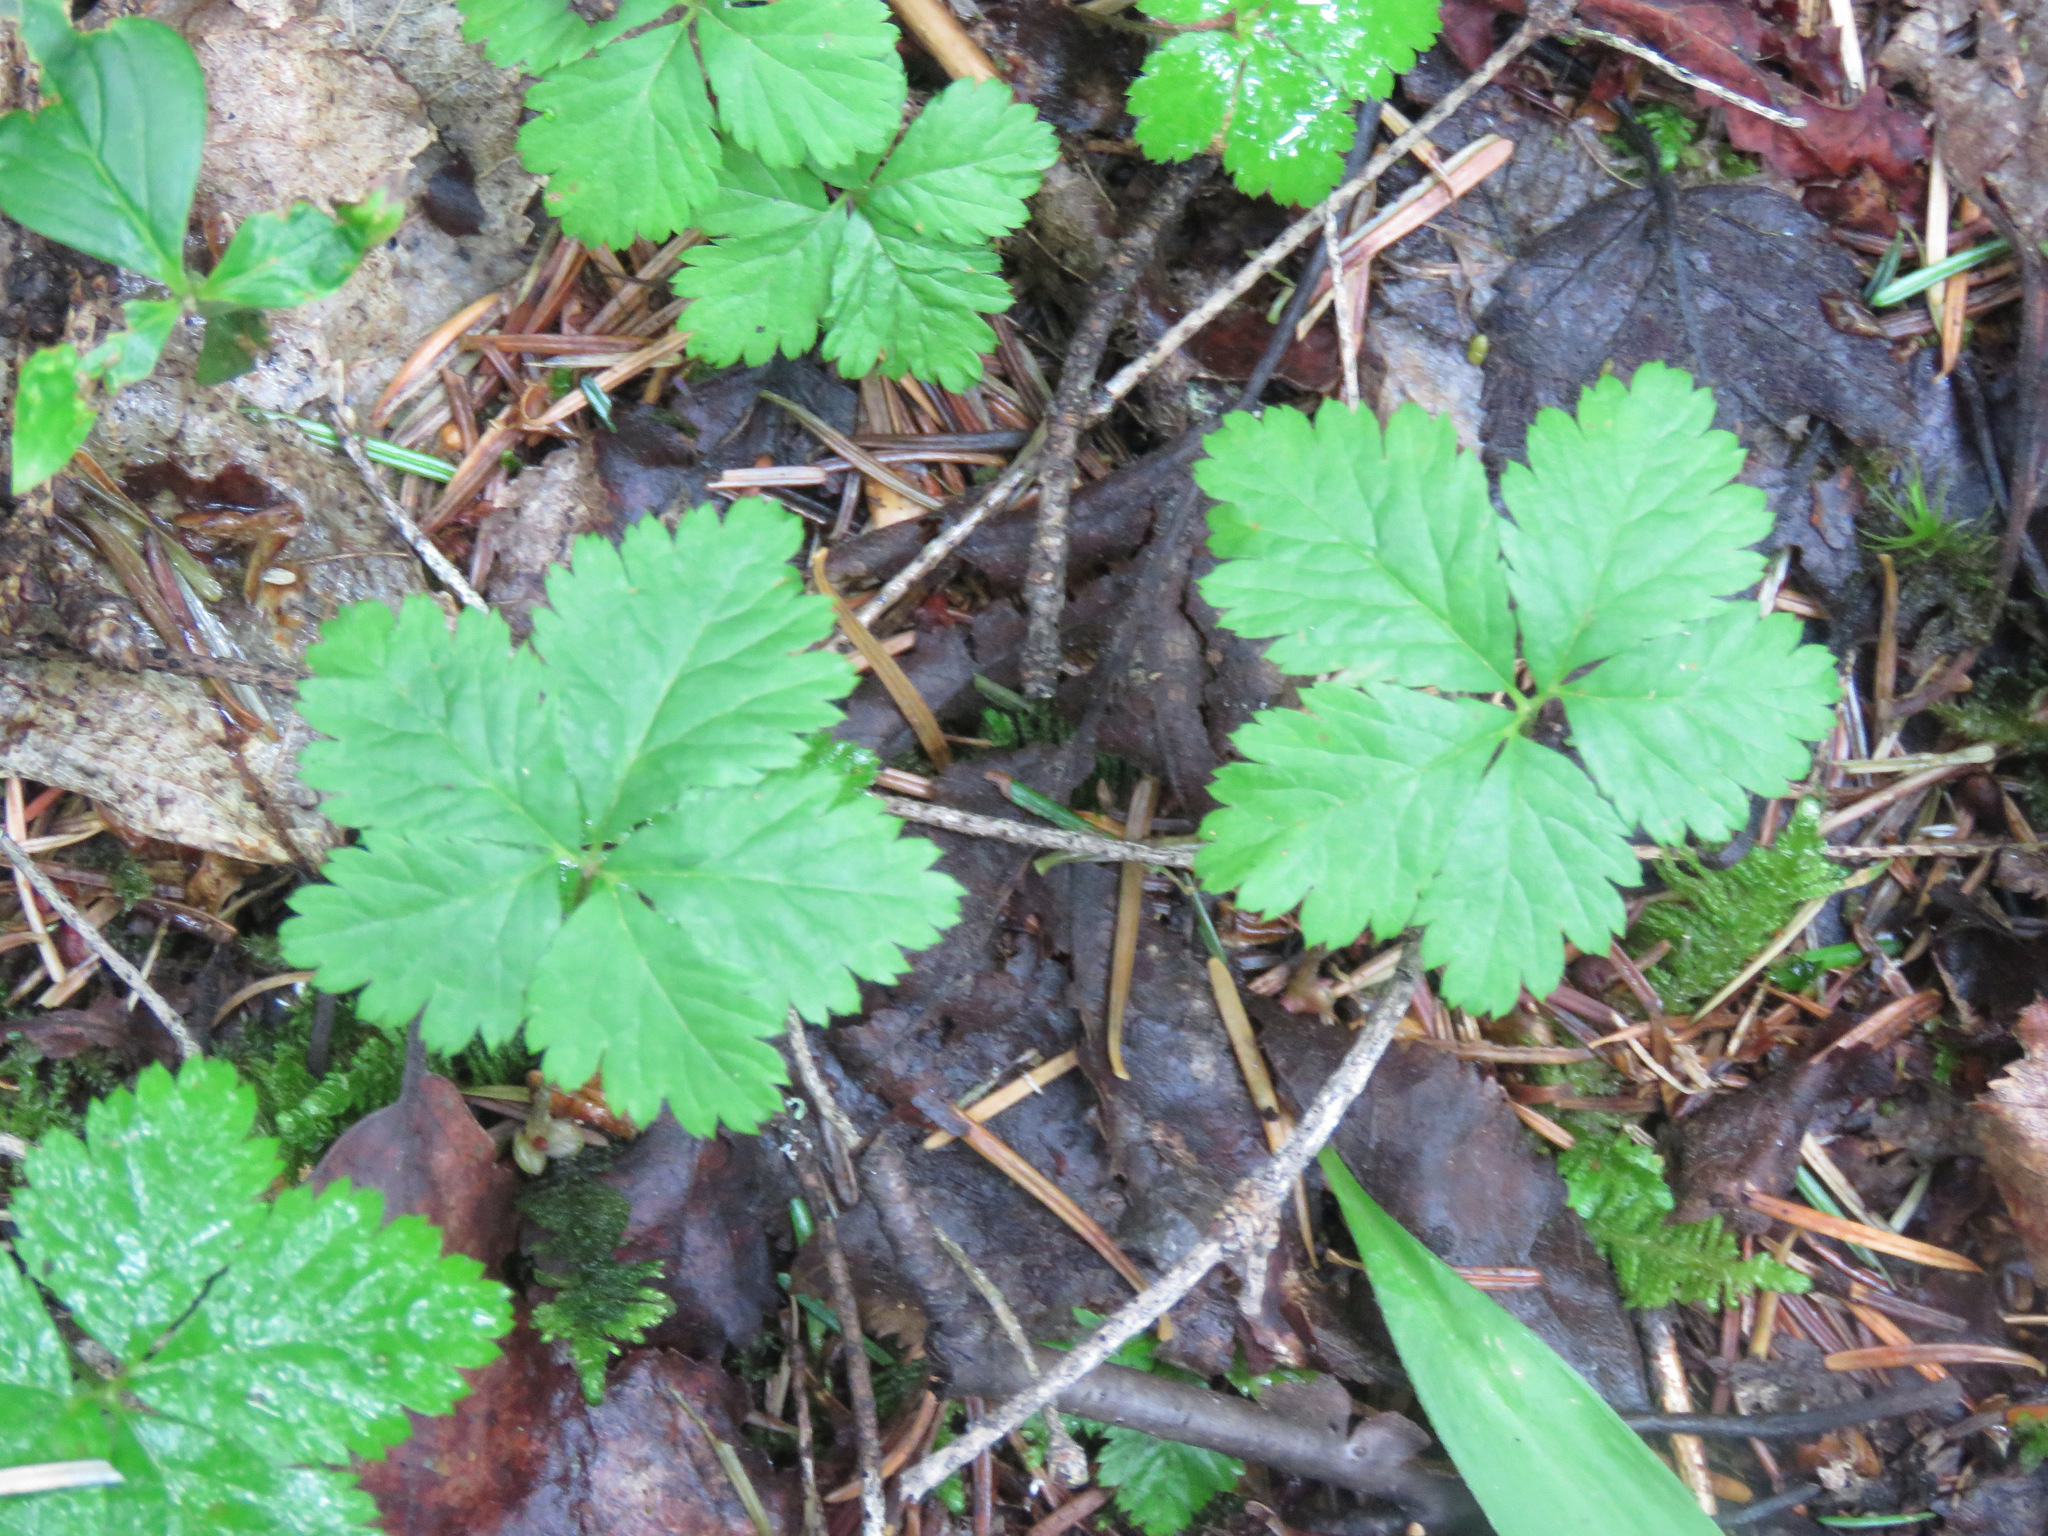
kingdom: Plantae
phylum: Tracheophyta
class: Magnoliopsida
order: Rosales
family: Rosaceae
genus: Rubus
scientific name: Rubus pedatus
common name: Creeping raspberry
